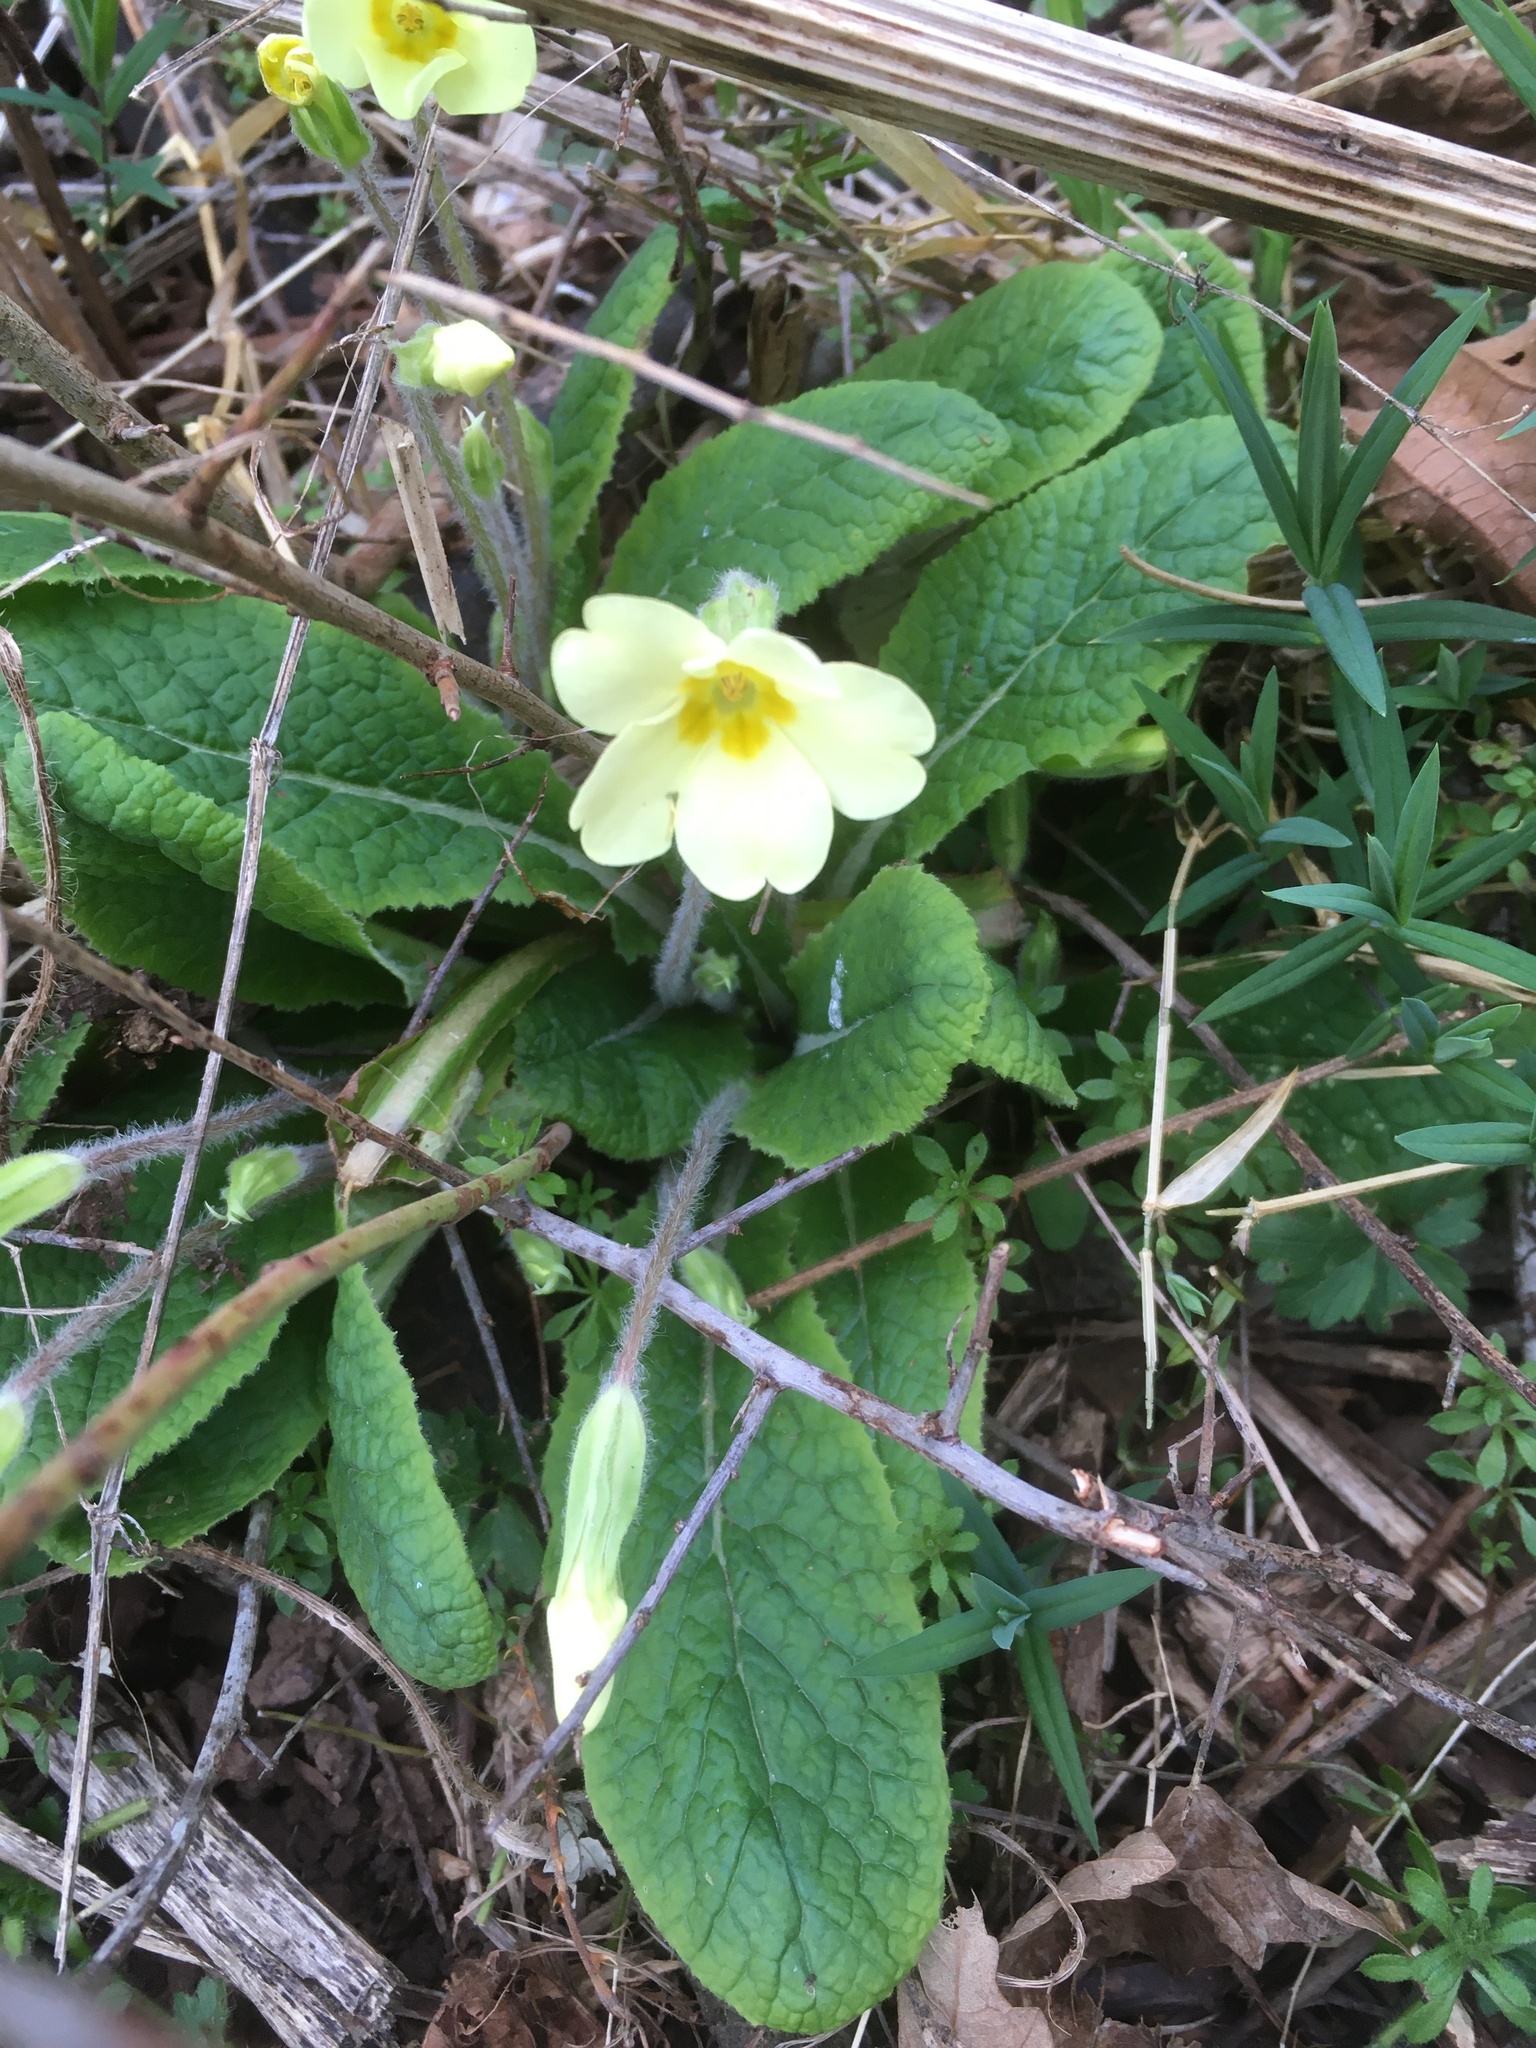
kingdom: Plantae
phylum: Tracheophyta
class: Magnoliopsida
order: Ericales
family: Primulaceae
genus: Primula
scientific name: Primula vulgaris
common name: Primrose
